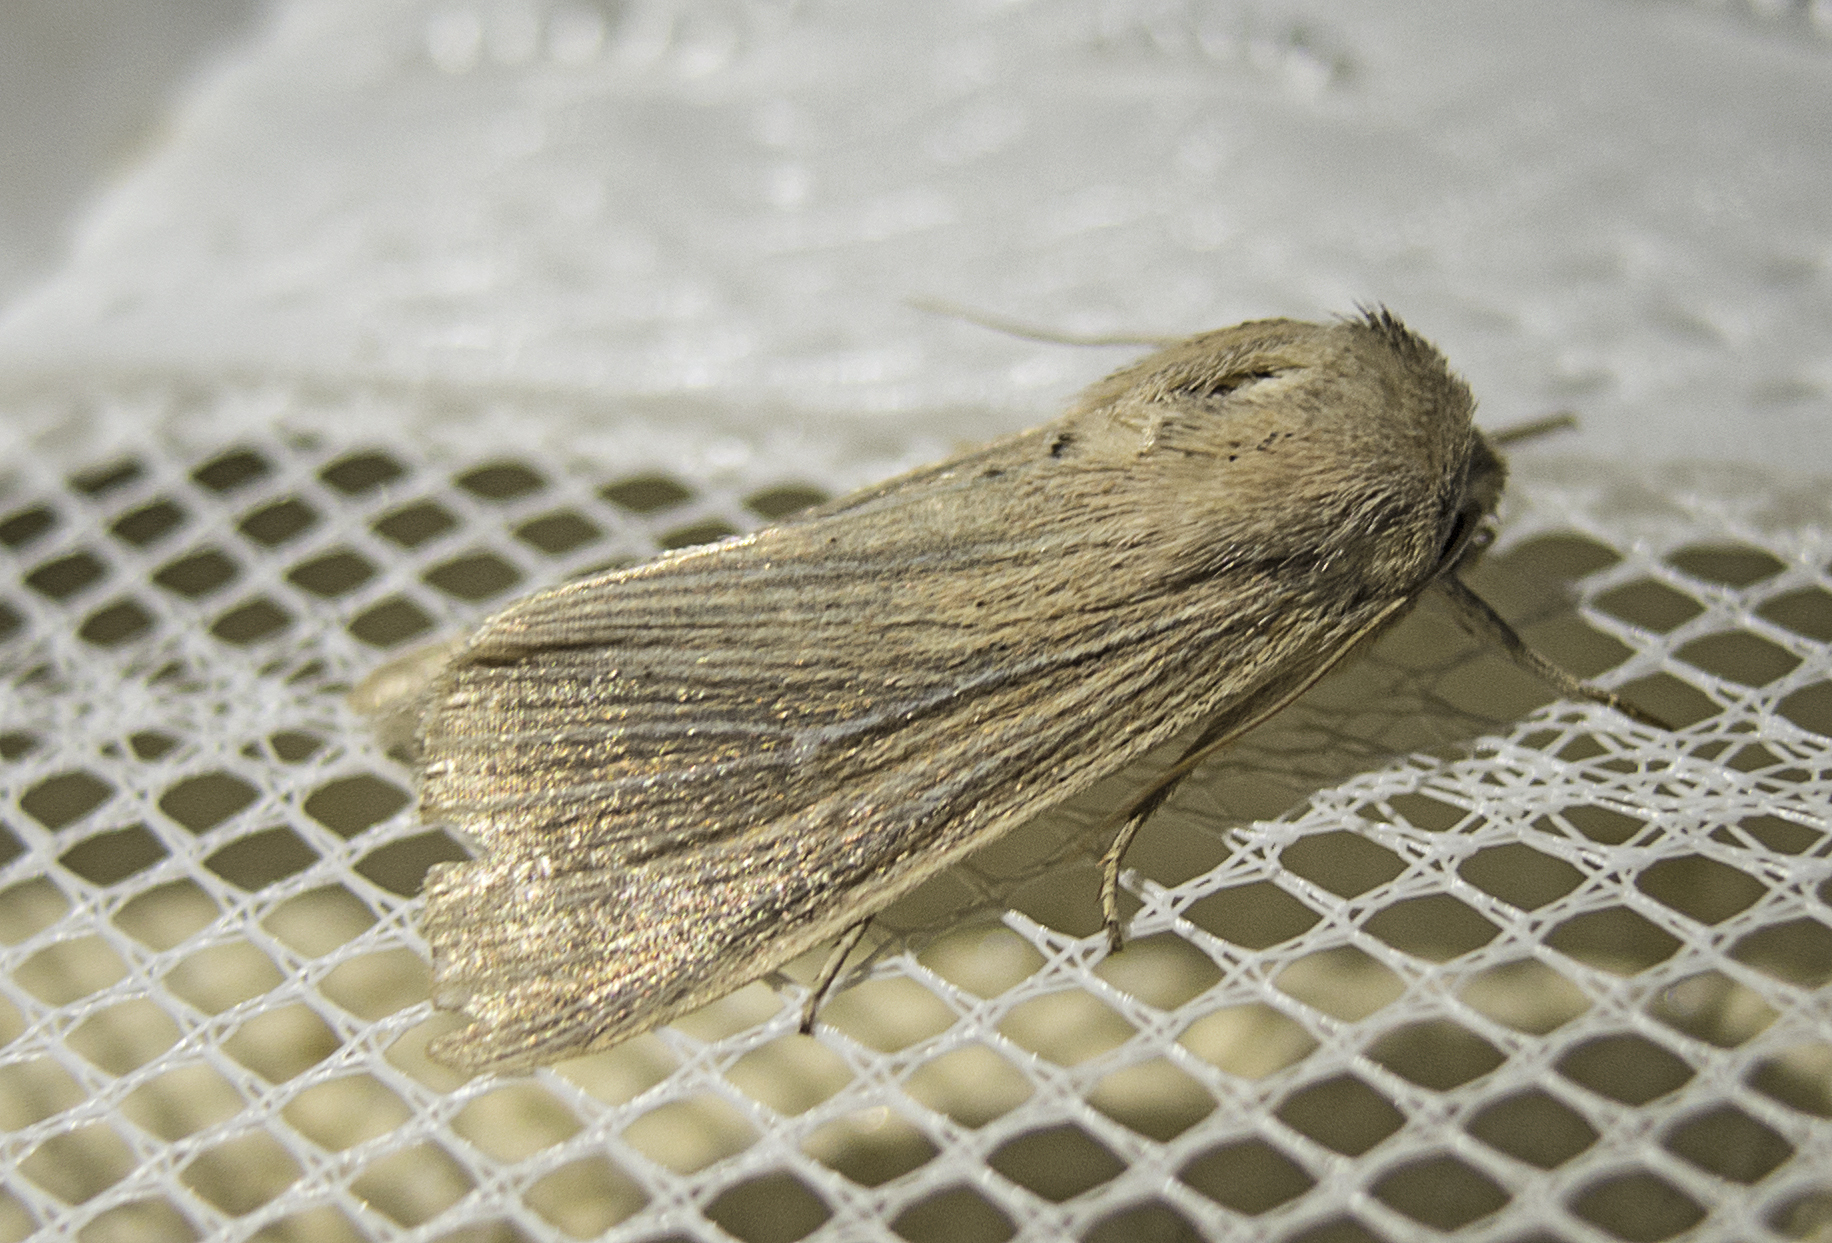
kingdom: Animalia
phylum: Arthropoda
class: Insecta
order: Lepidoptera
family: Noctuidae
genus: Mythimna
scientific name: Mythimna congrua
